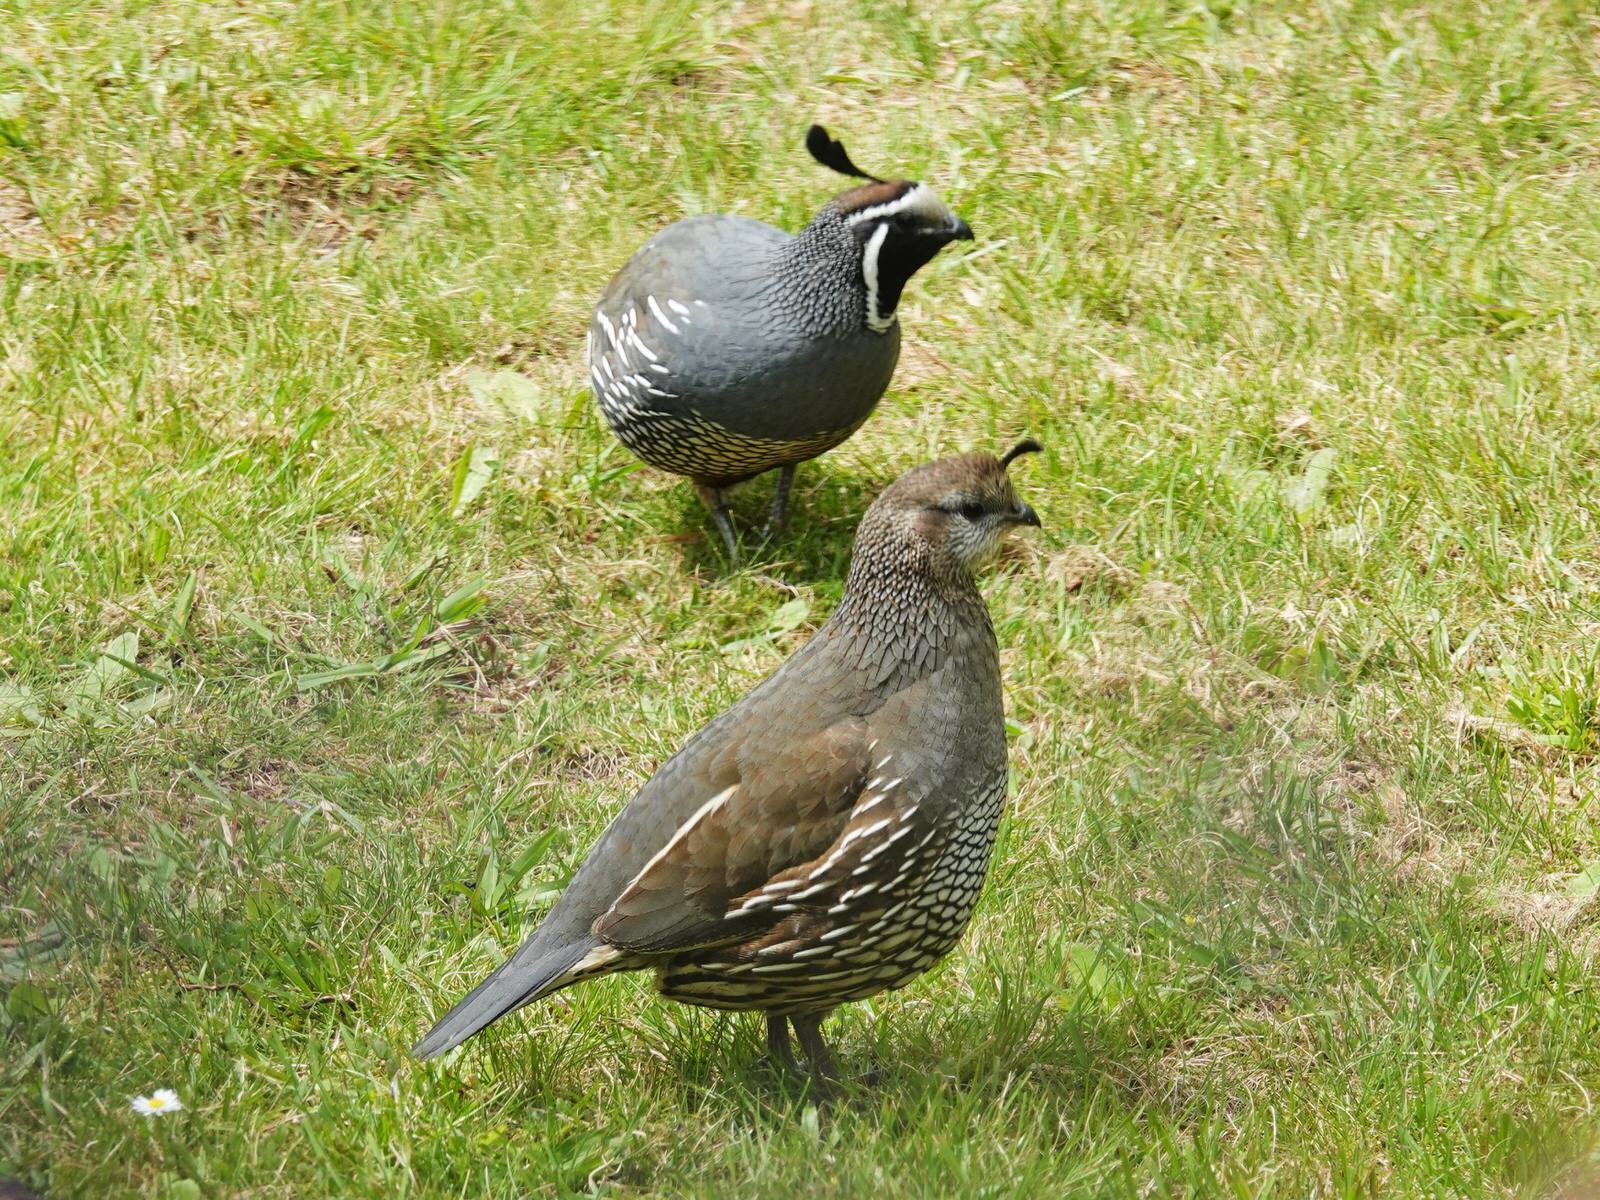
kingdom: Animalia
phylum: Chordata
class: Aves
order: Galliformes
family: Odontophoridae
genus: Callipepla
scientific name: Callipepla californica
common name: California quail
